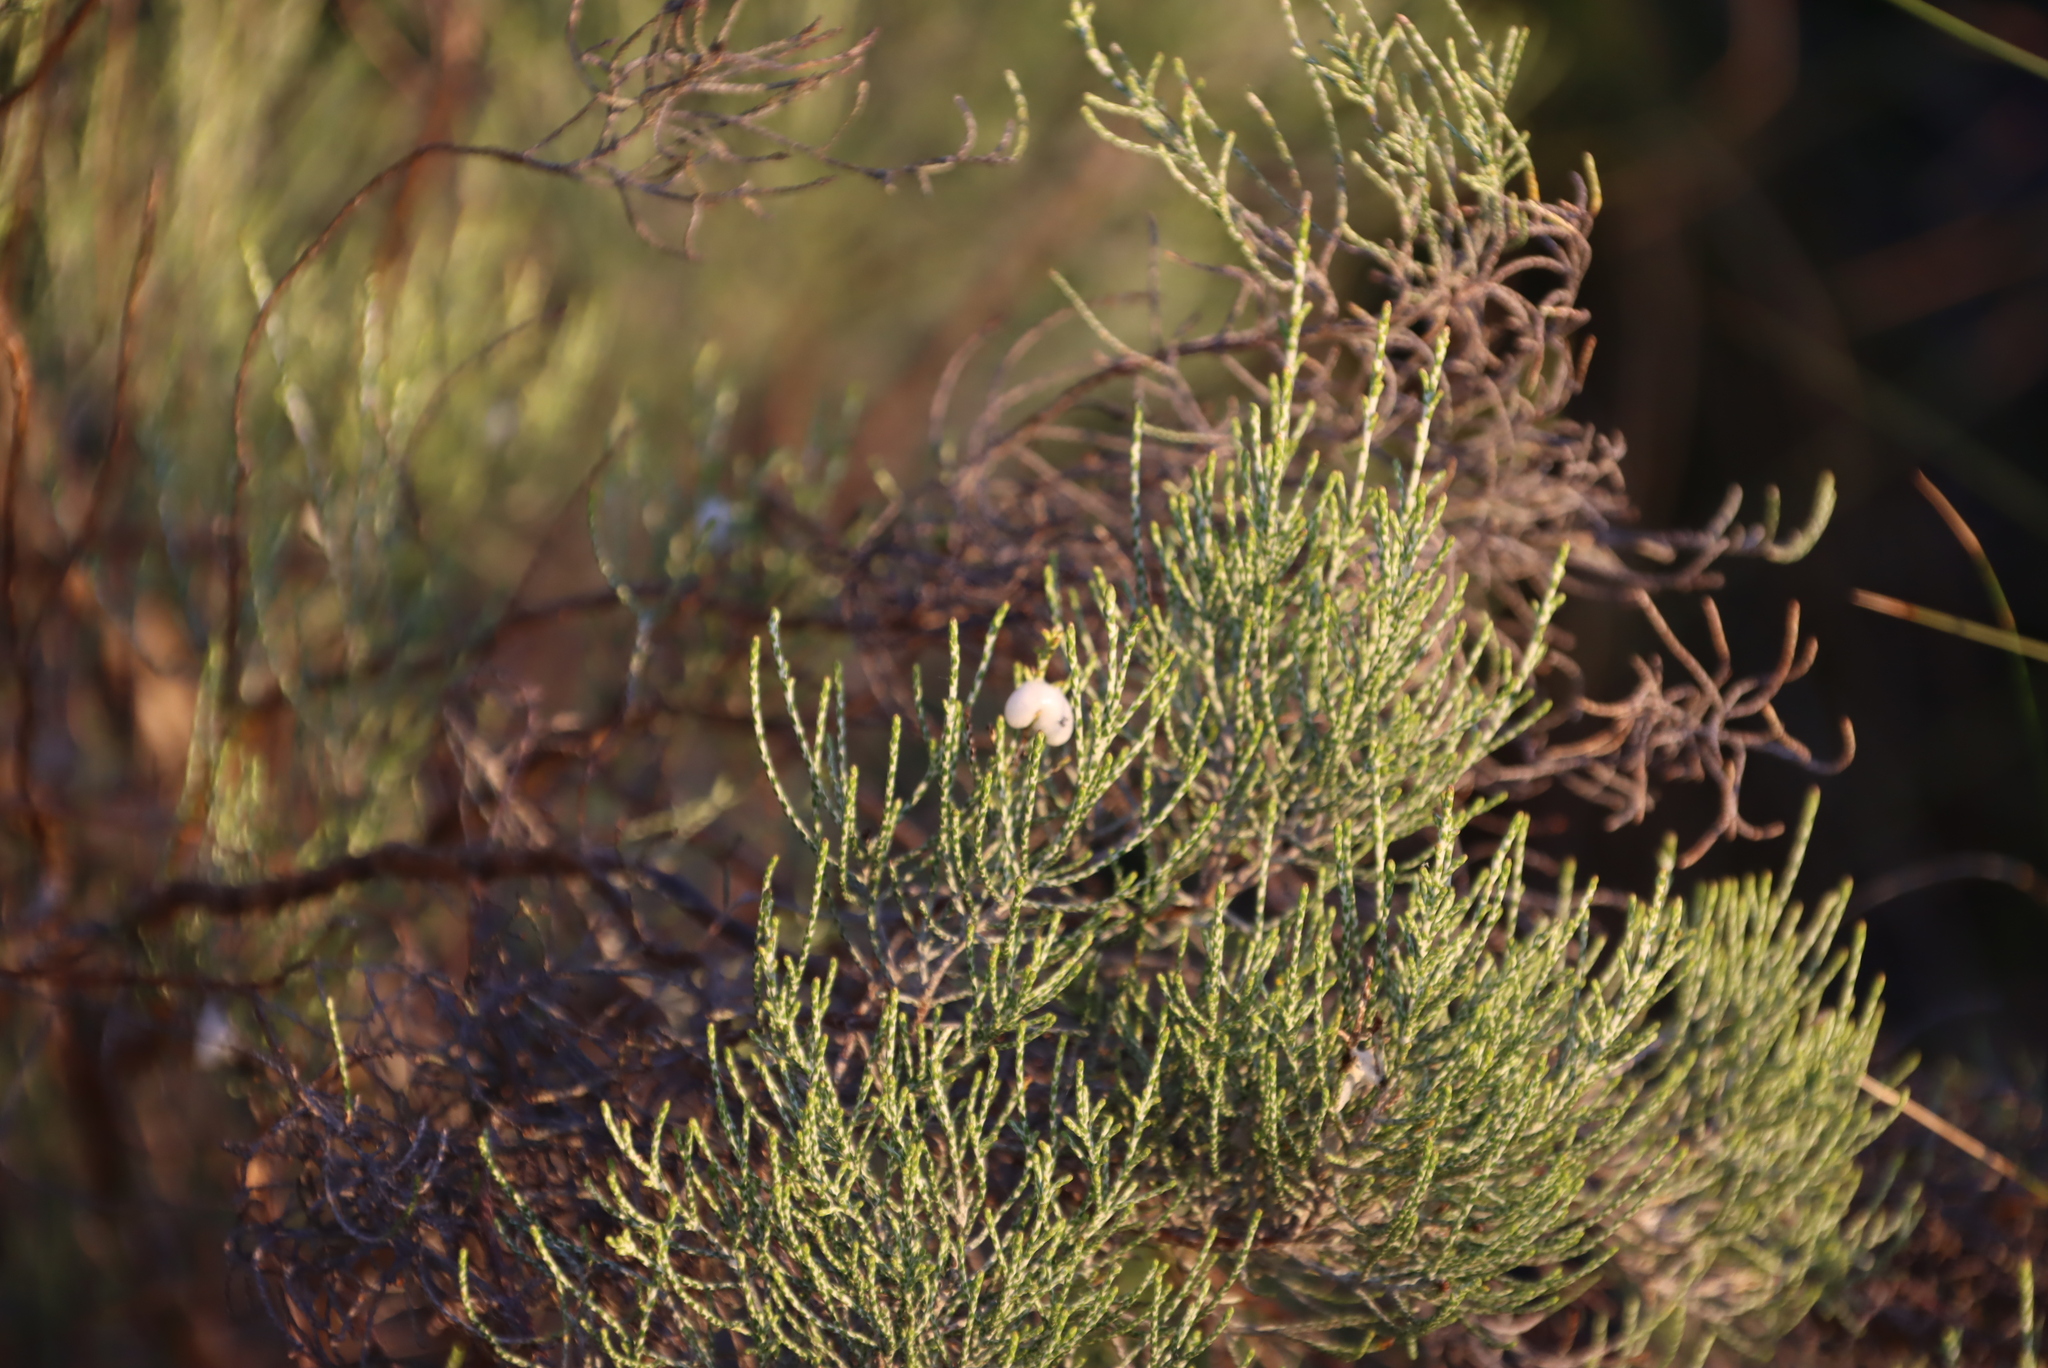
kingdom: Plantae
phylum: Tracheophyta
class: Magnoliopsida
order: Asterales
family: Asteraceae
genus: Dicerothamnus
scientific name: Dicerothamnus rhinocerotis
